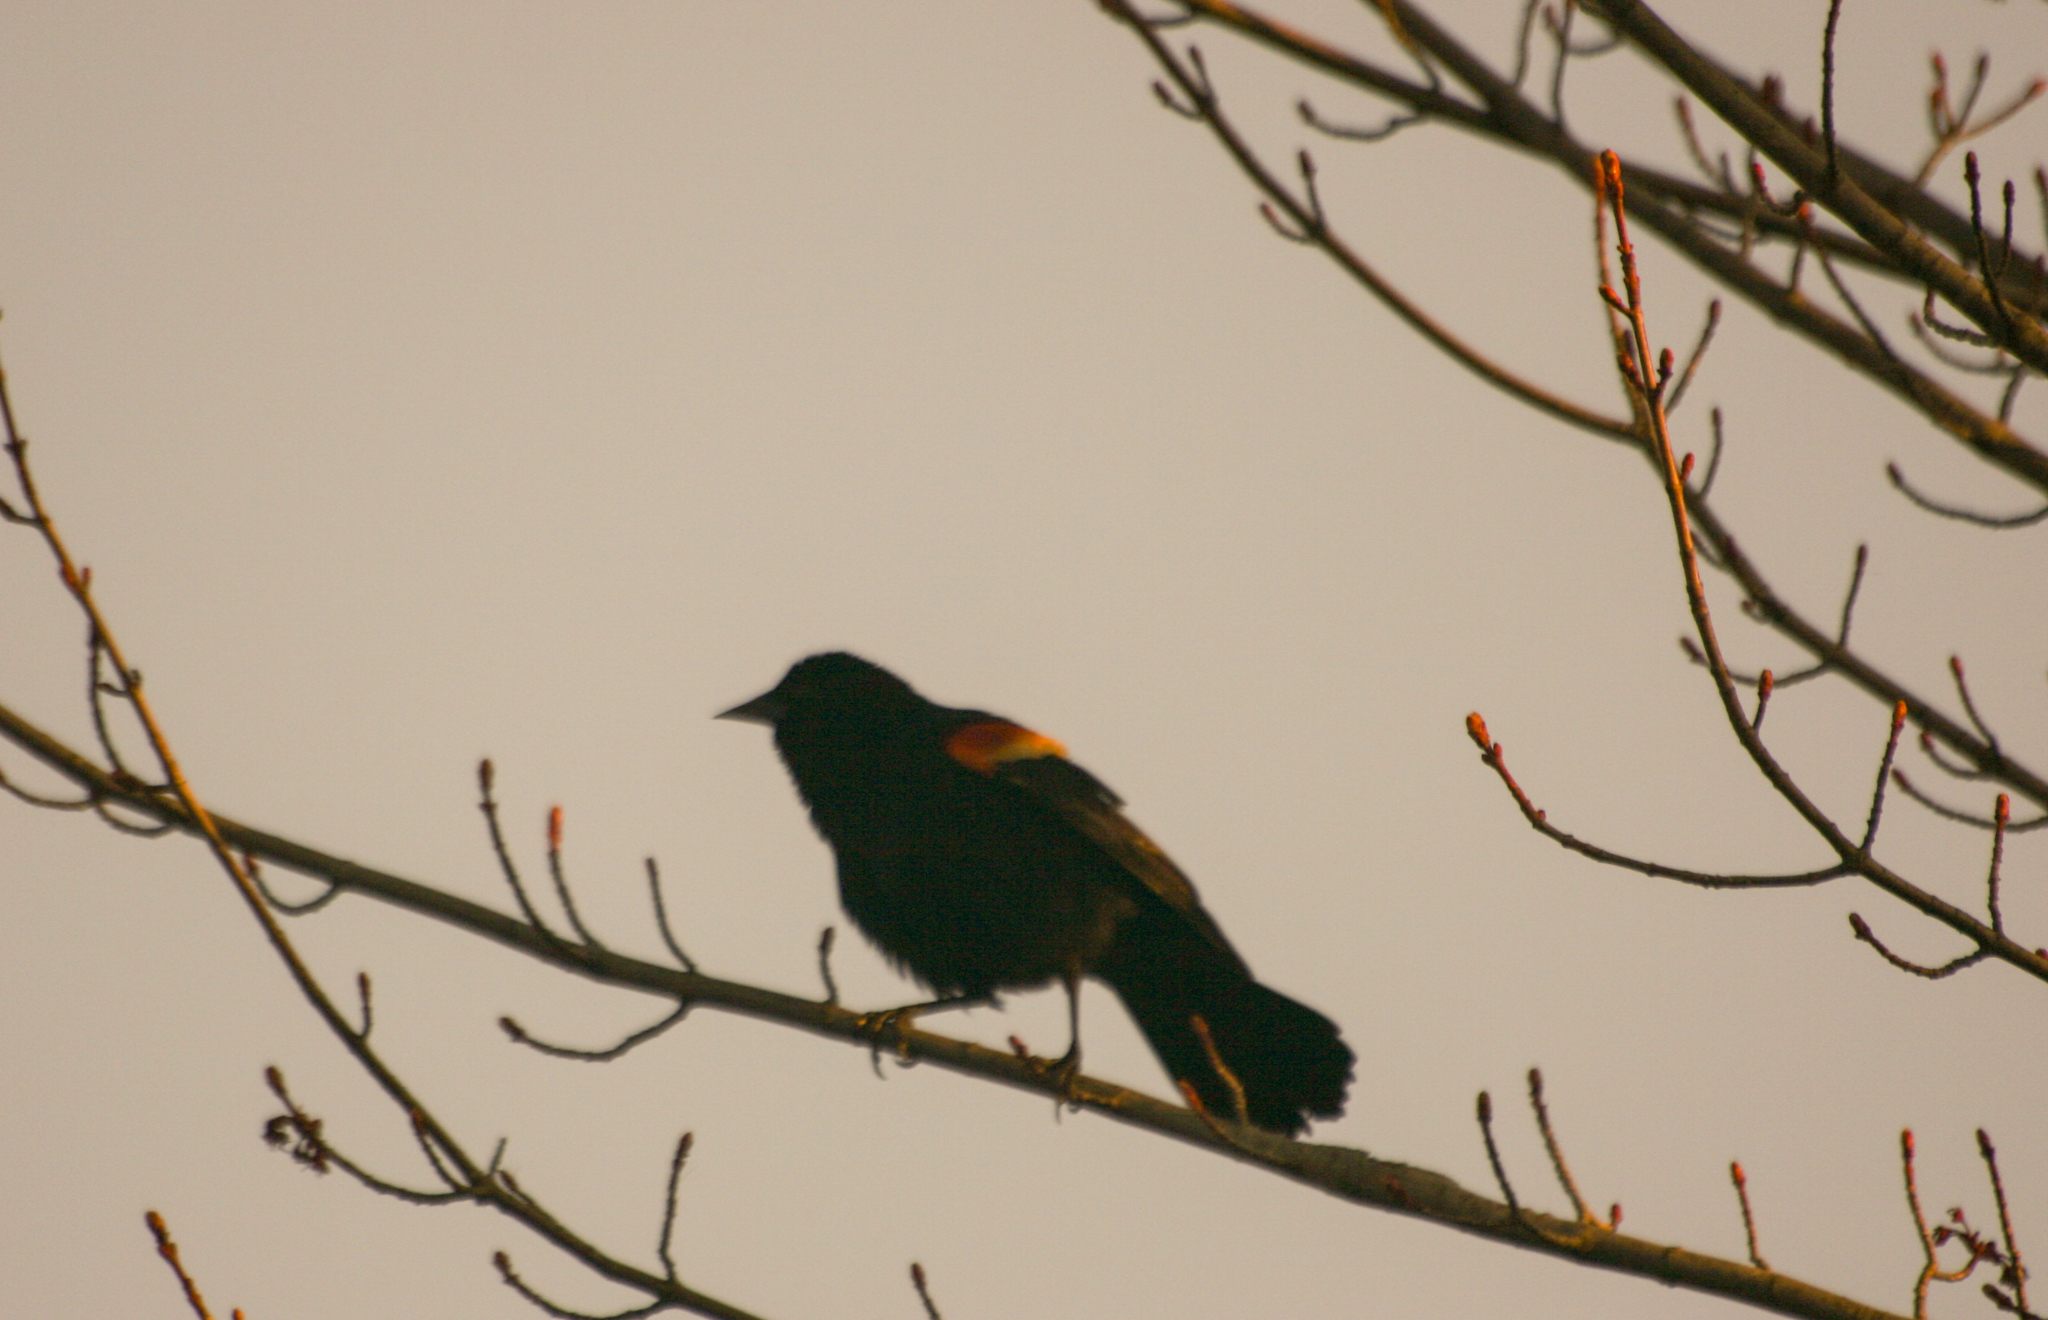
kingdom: Animalia
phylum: Chordata
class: Aves
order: Passeriformes
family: Icteridae
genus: Agelaius
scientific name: Agelaius phoeniceus
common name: Red-winged blackbird
